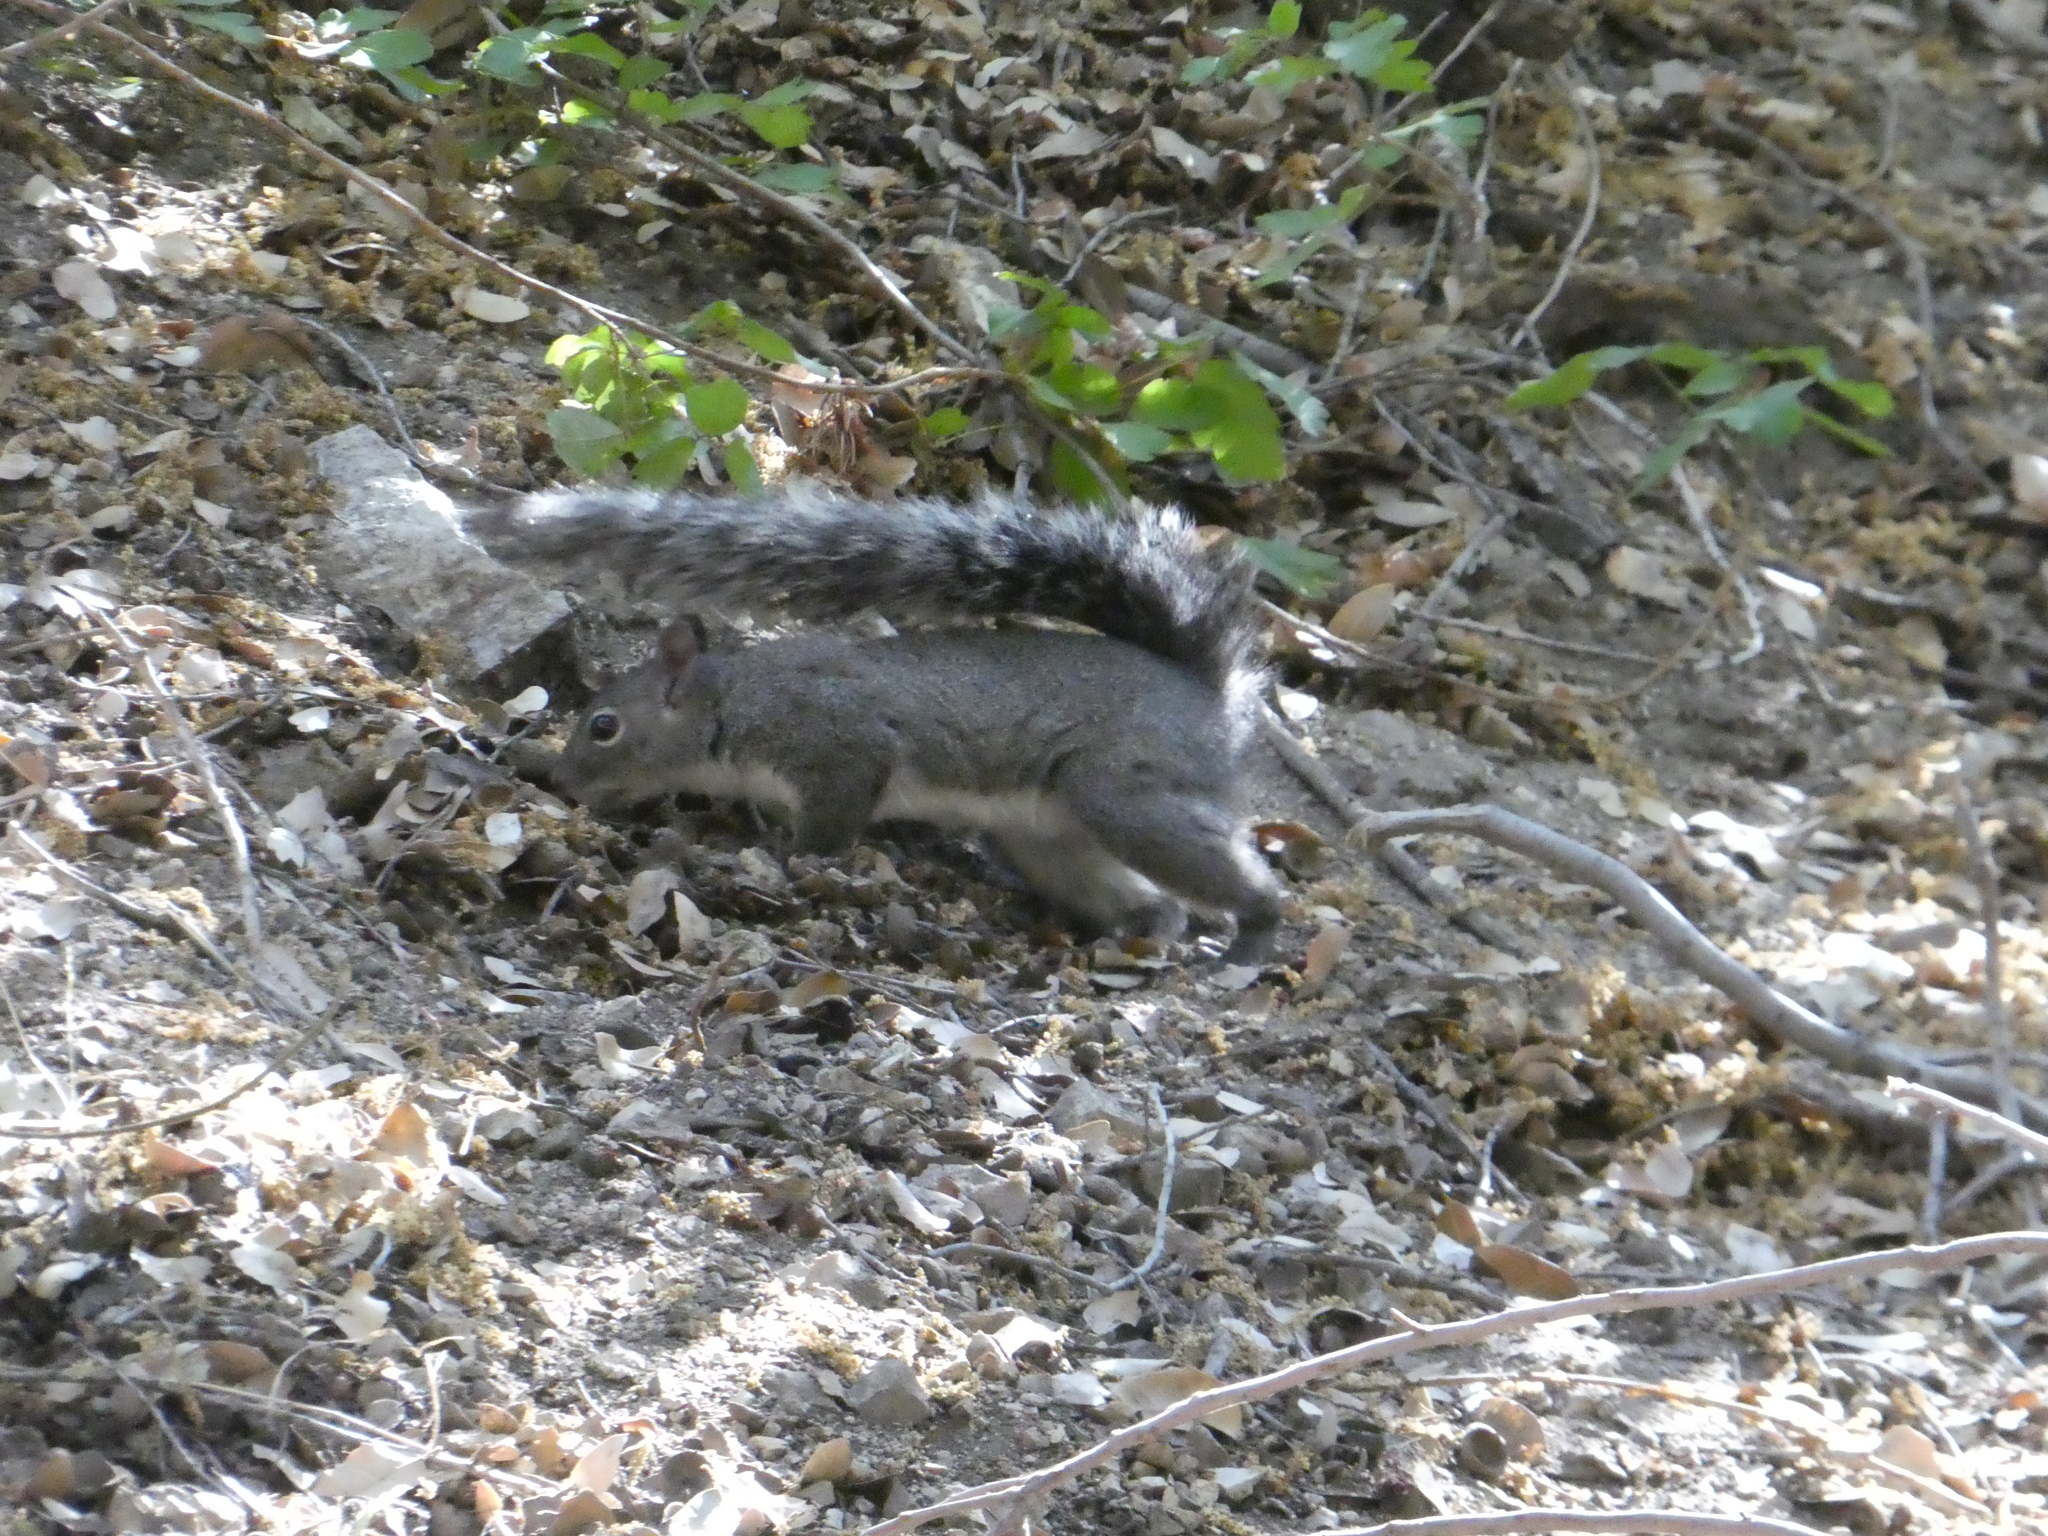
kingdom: Animalia
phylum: Chordata
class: Mammalia
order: Rodentia
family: Sciuridae
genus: Sciurus
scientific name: Sciurus griseus
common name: Western gray squirrel
